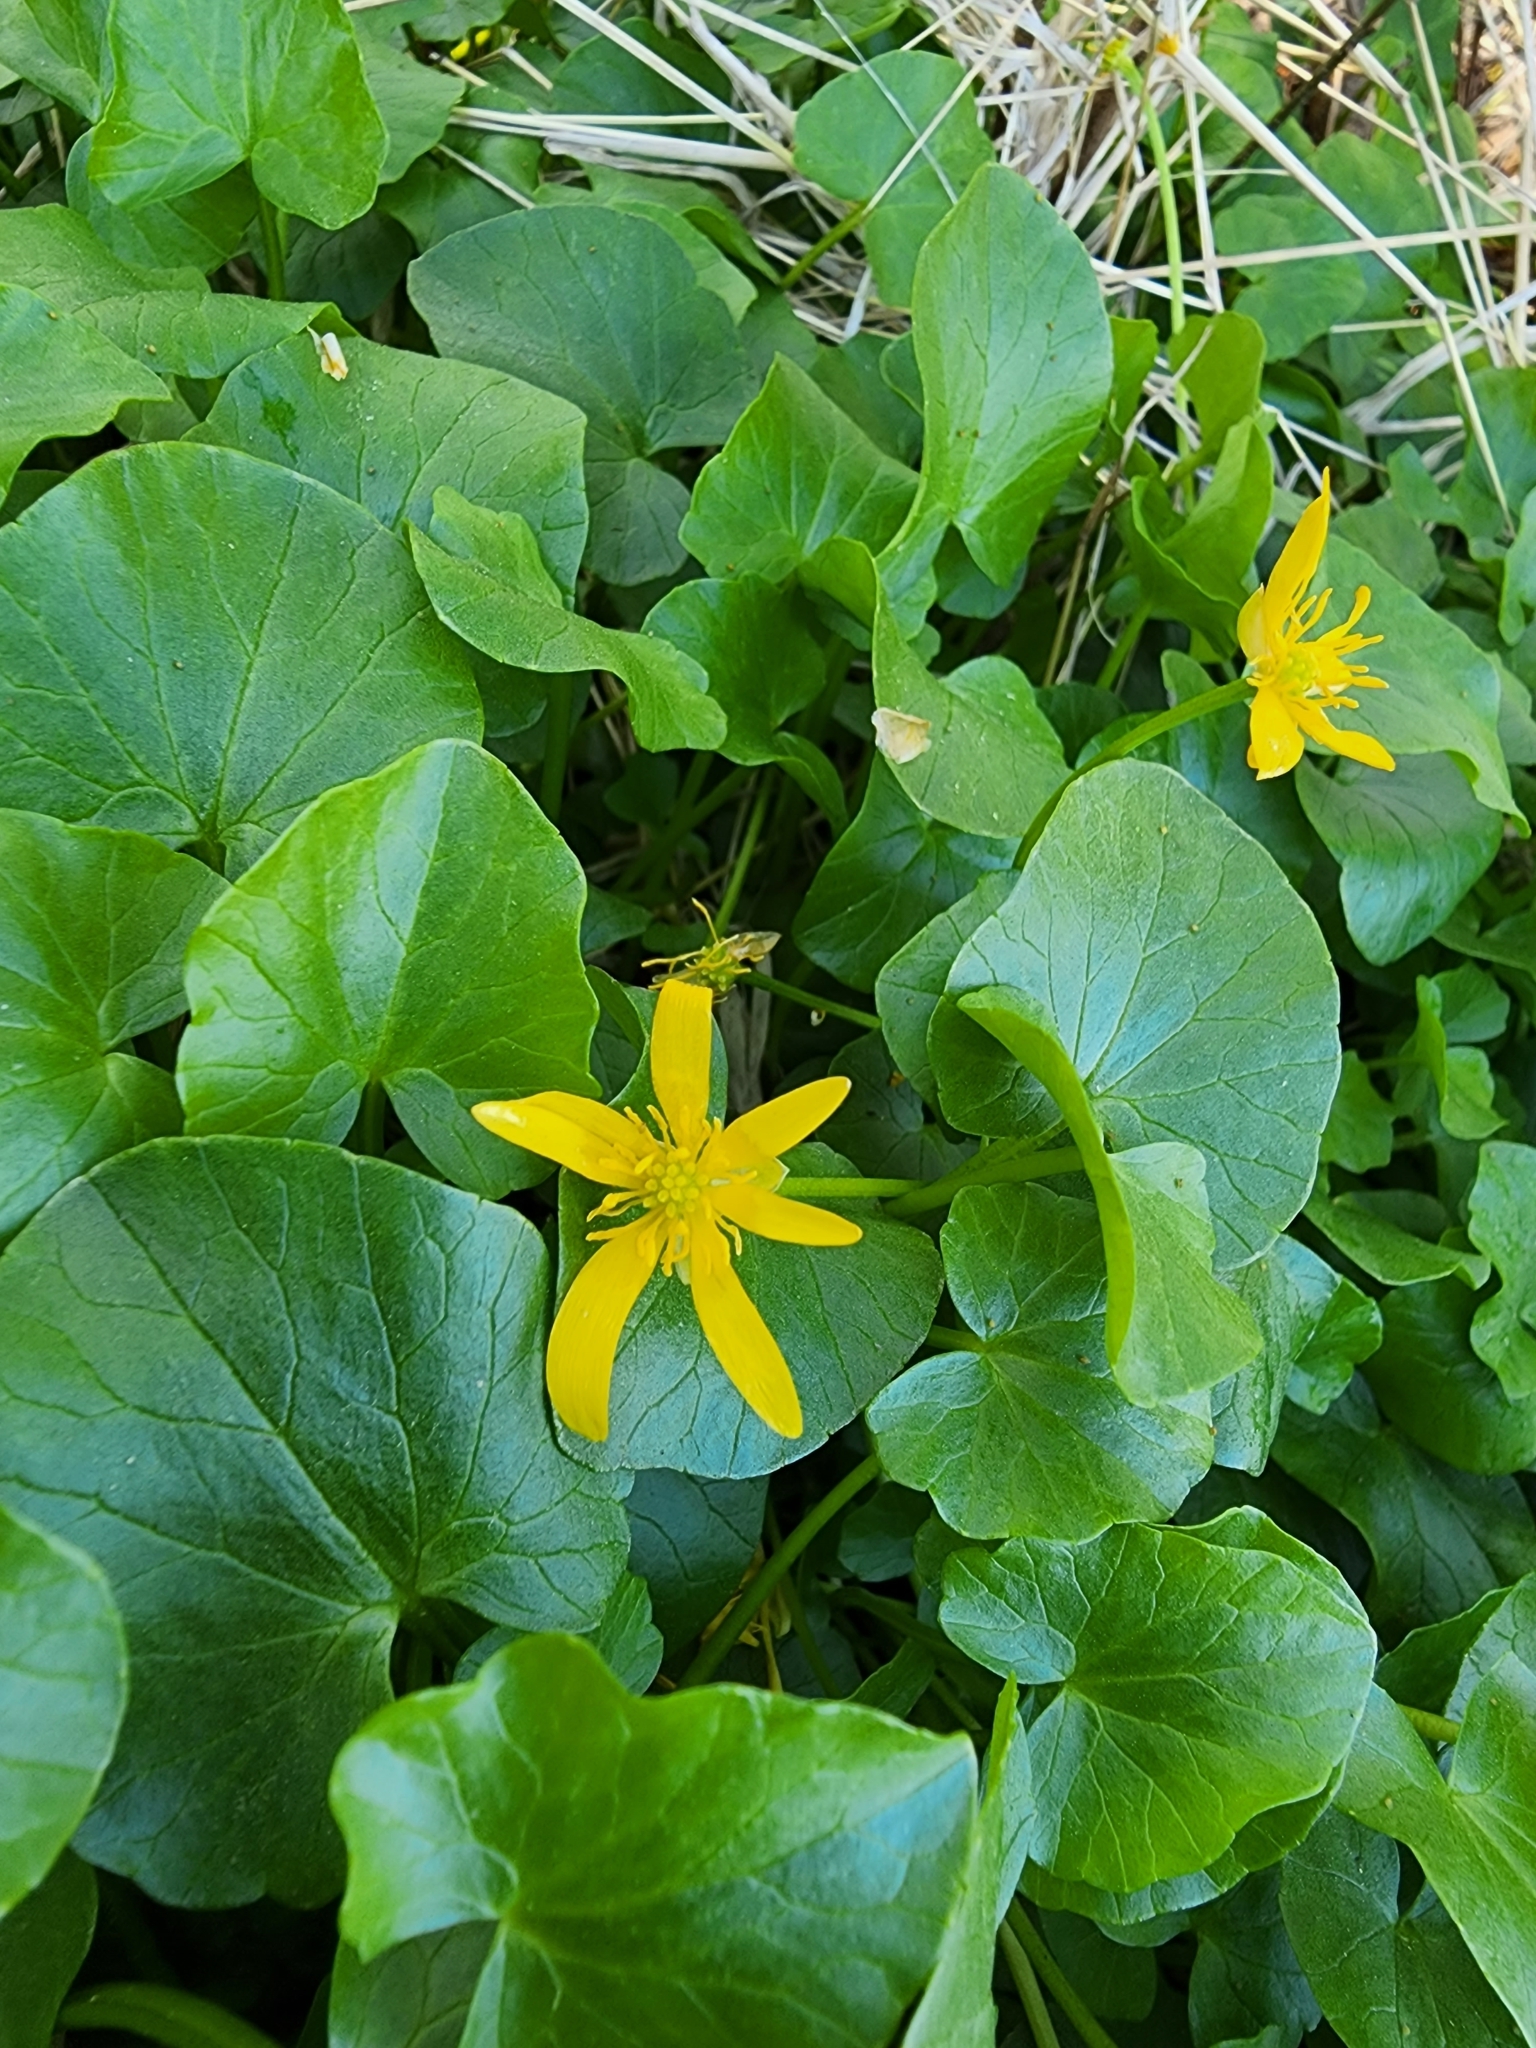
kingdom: Plantae
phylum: Tracheophyta
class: Magnoliopsida
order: Ranunculales
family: Ranunculaceae
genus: Ficaria
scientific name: Ficaria verna
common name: Lesser celandine
